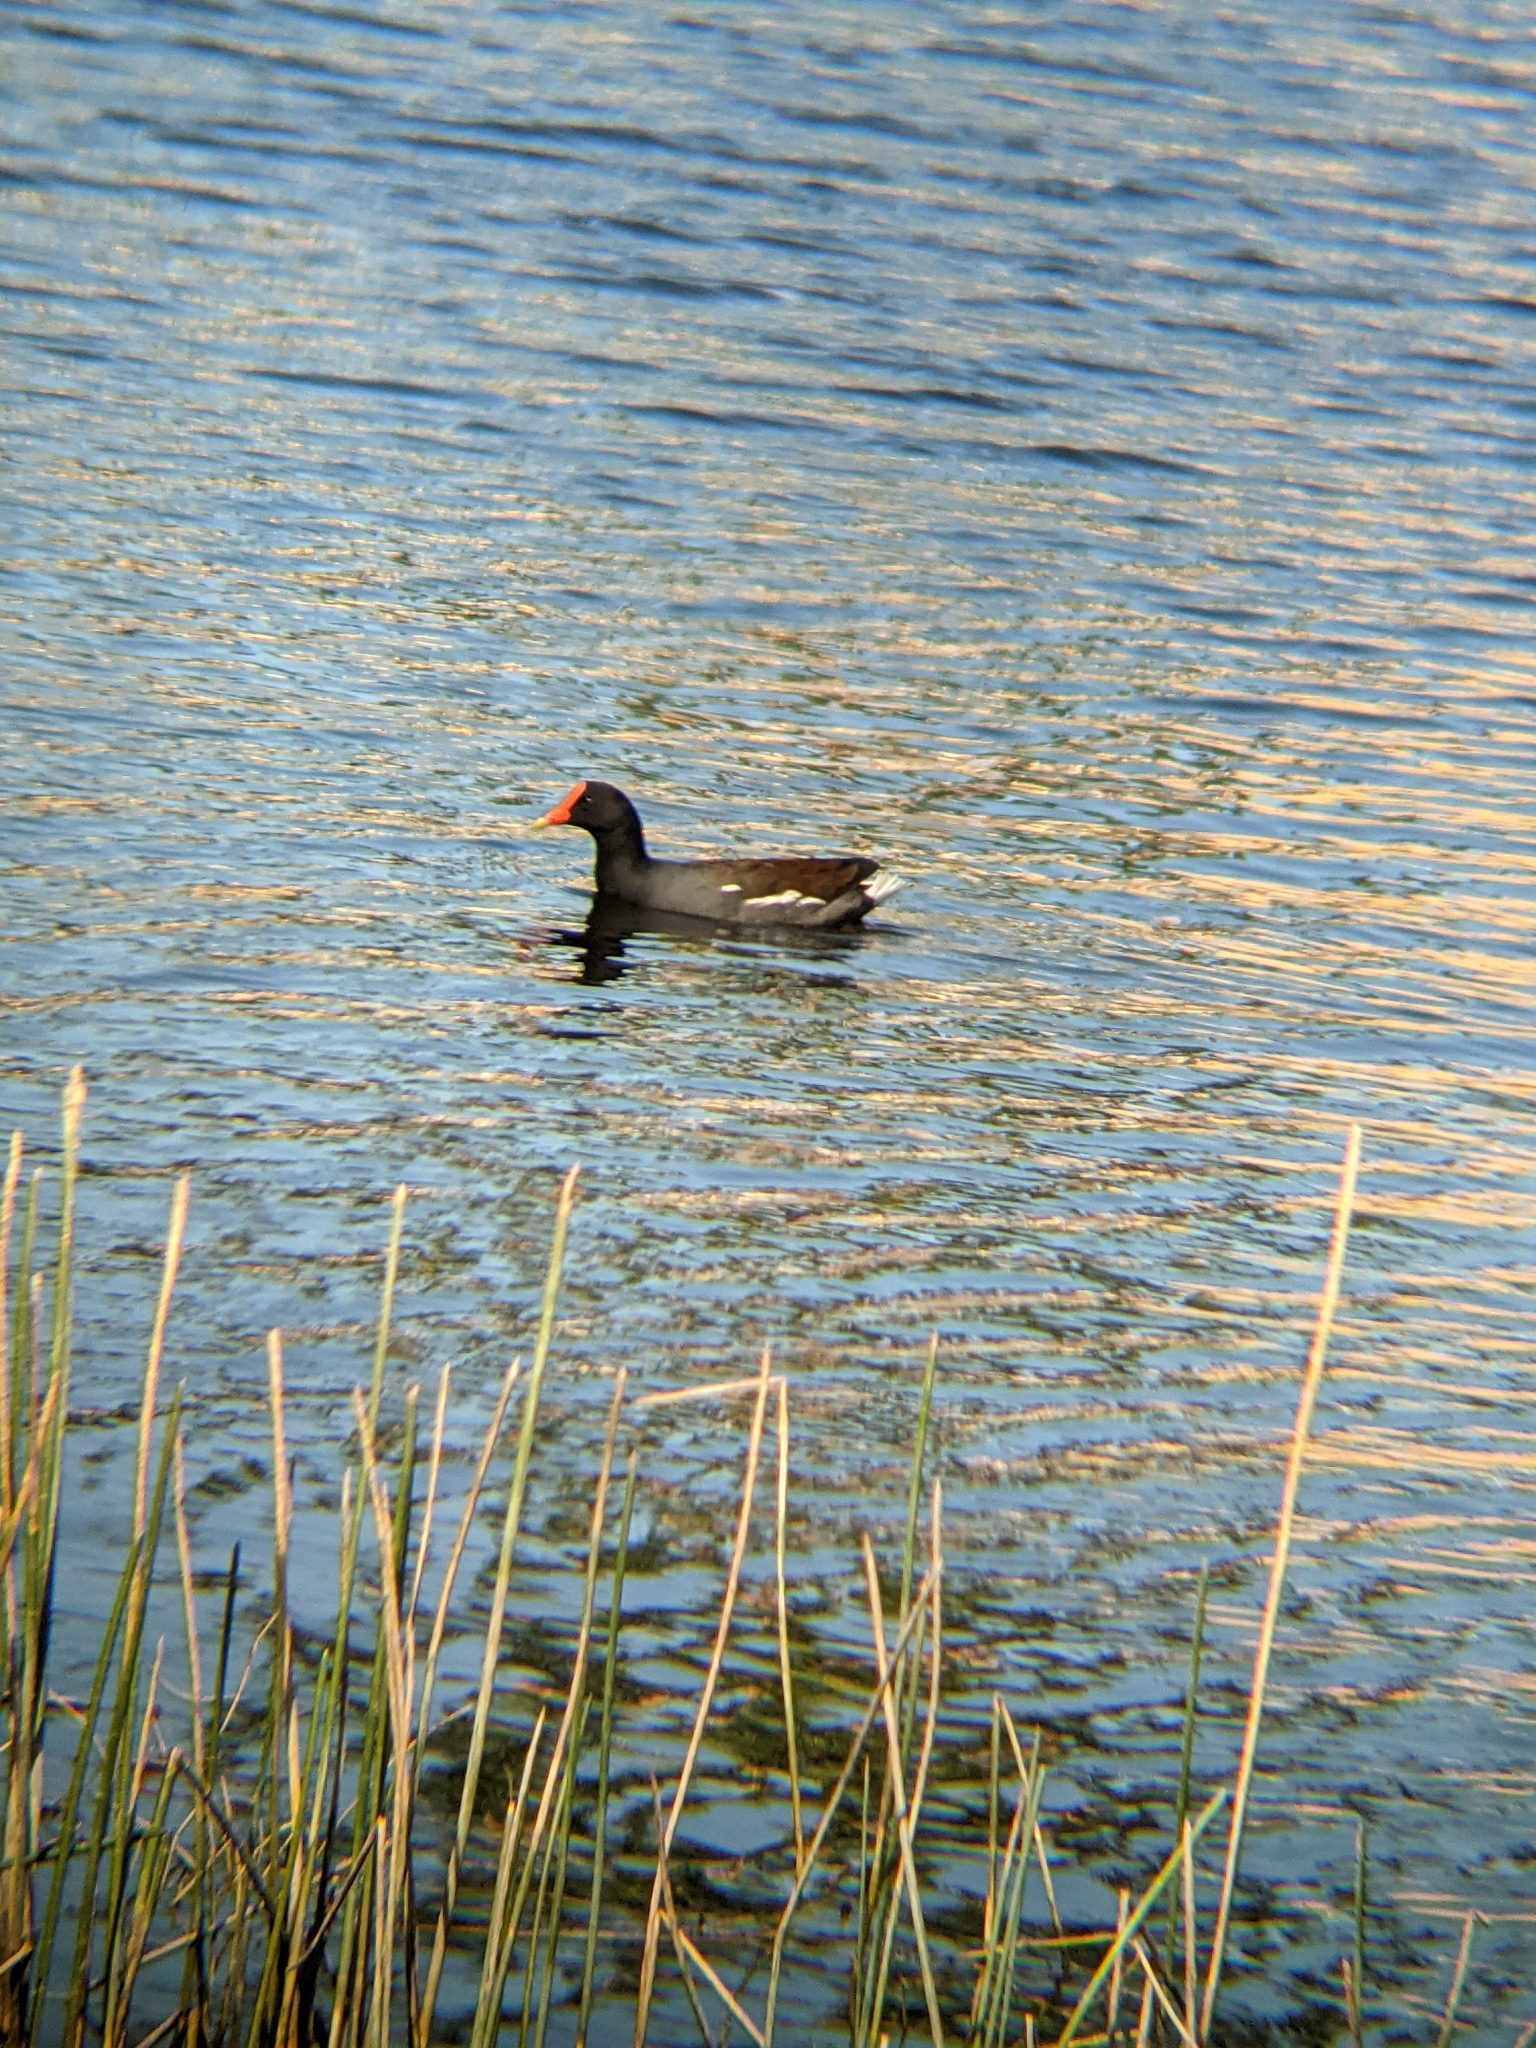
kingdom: Animalia
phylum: Chordata
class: Aves
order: Gruiformes
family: Rallidae
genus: Gallinula
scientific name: Gallinula chloropus
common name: Common moorhen
